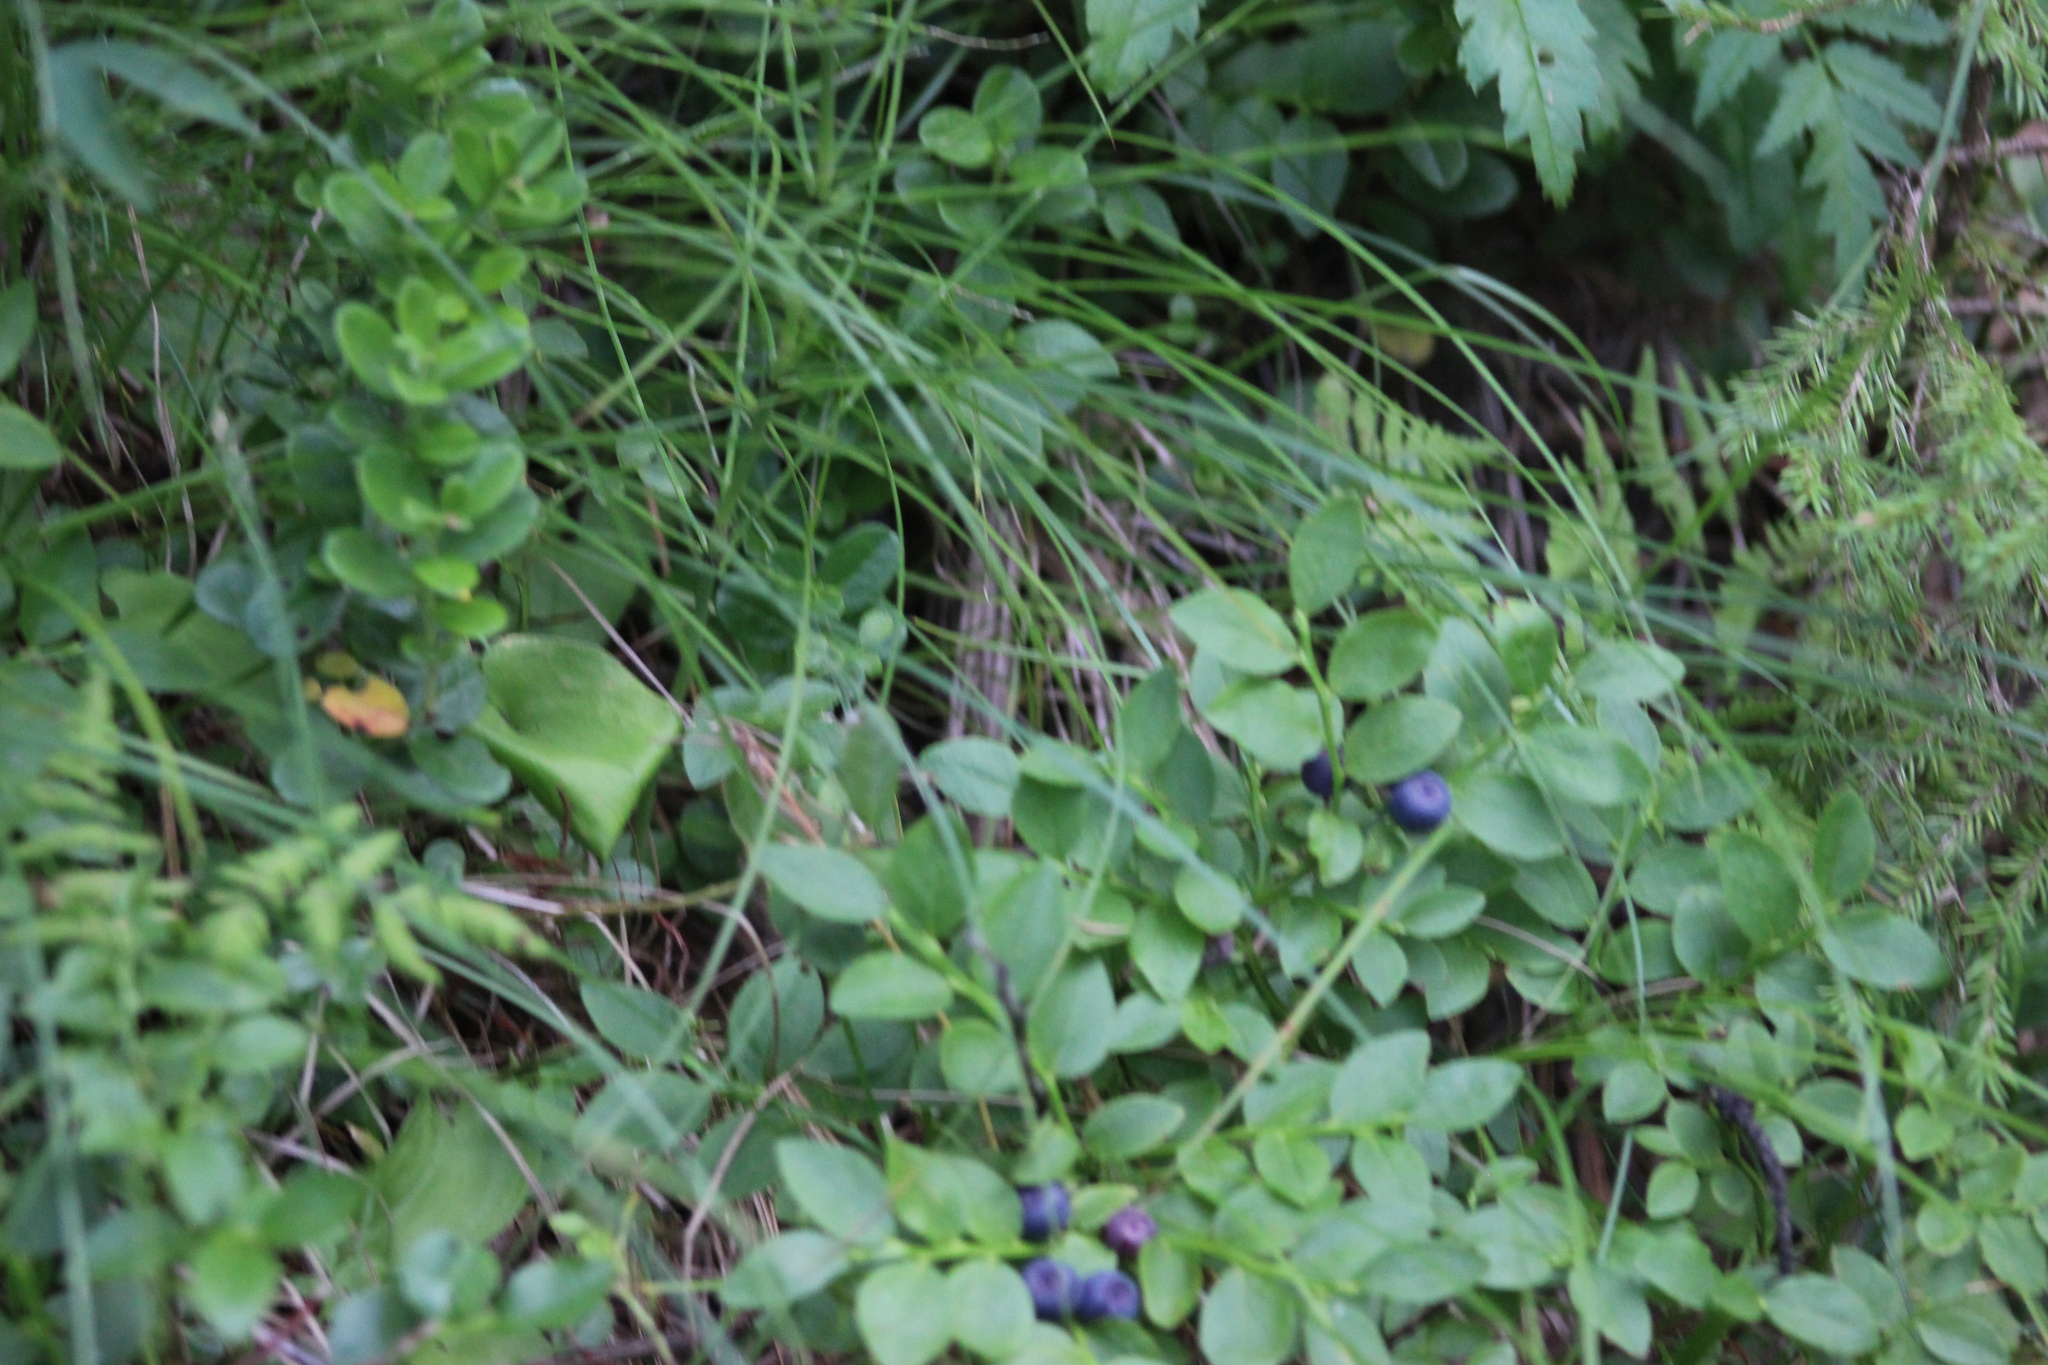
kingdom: Plantae
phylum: Tracheophyta
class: Magnoliopsida
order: Ericales
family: Ericaceae
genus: Vaccinium
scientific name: Vaccinium myrtillus
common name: Bilberry
